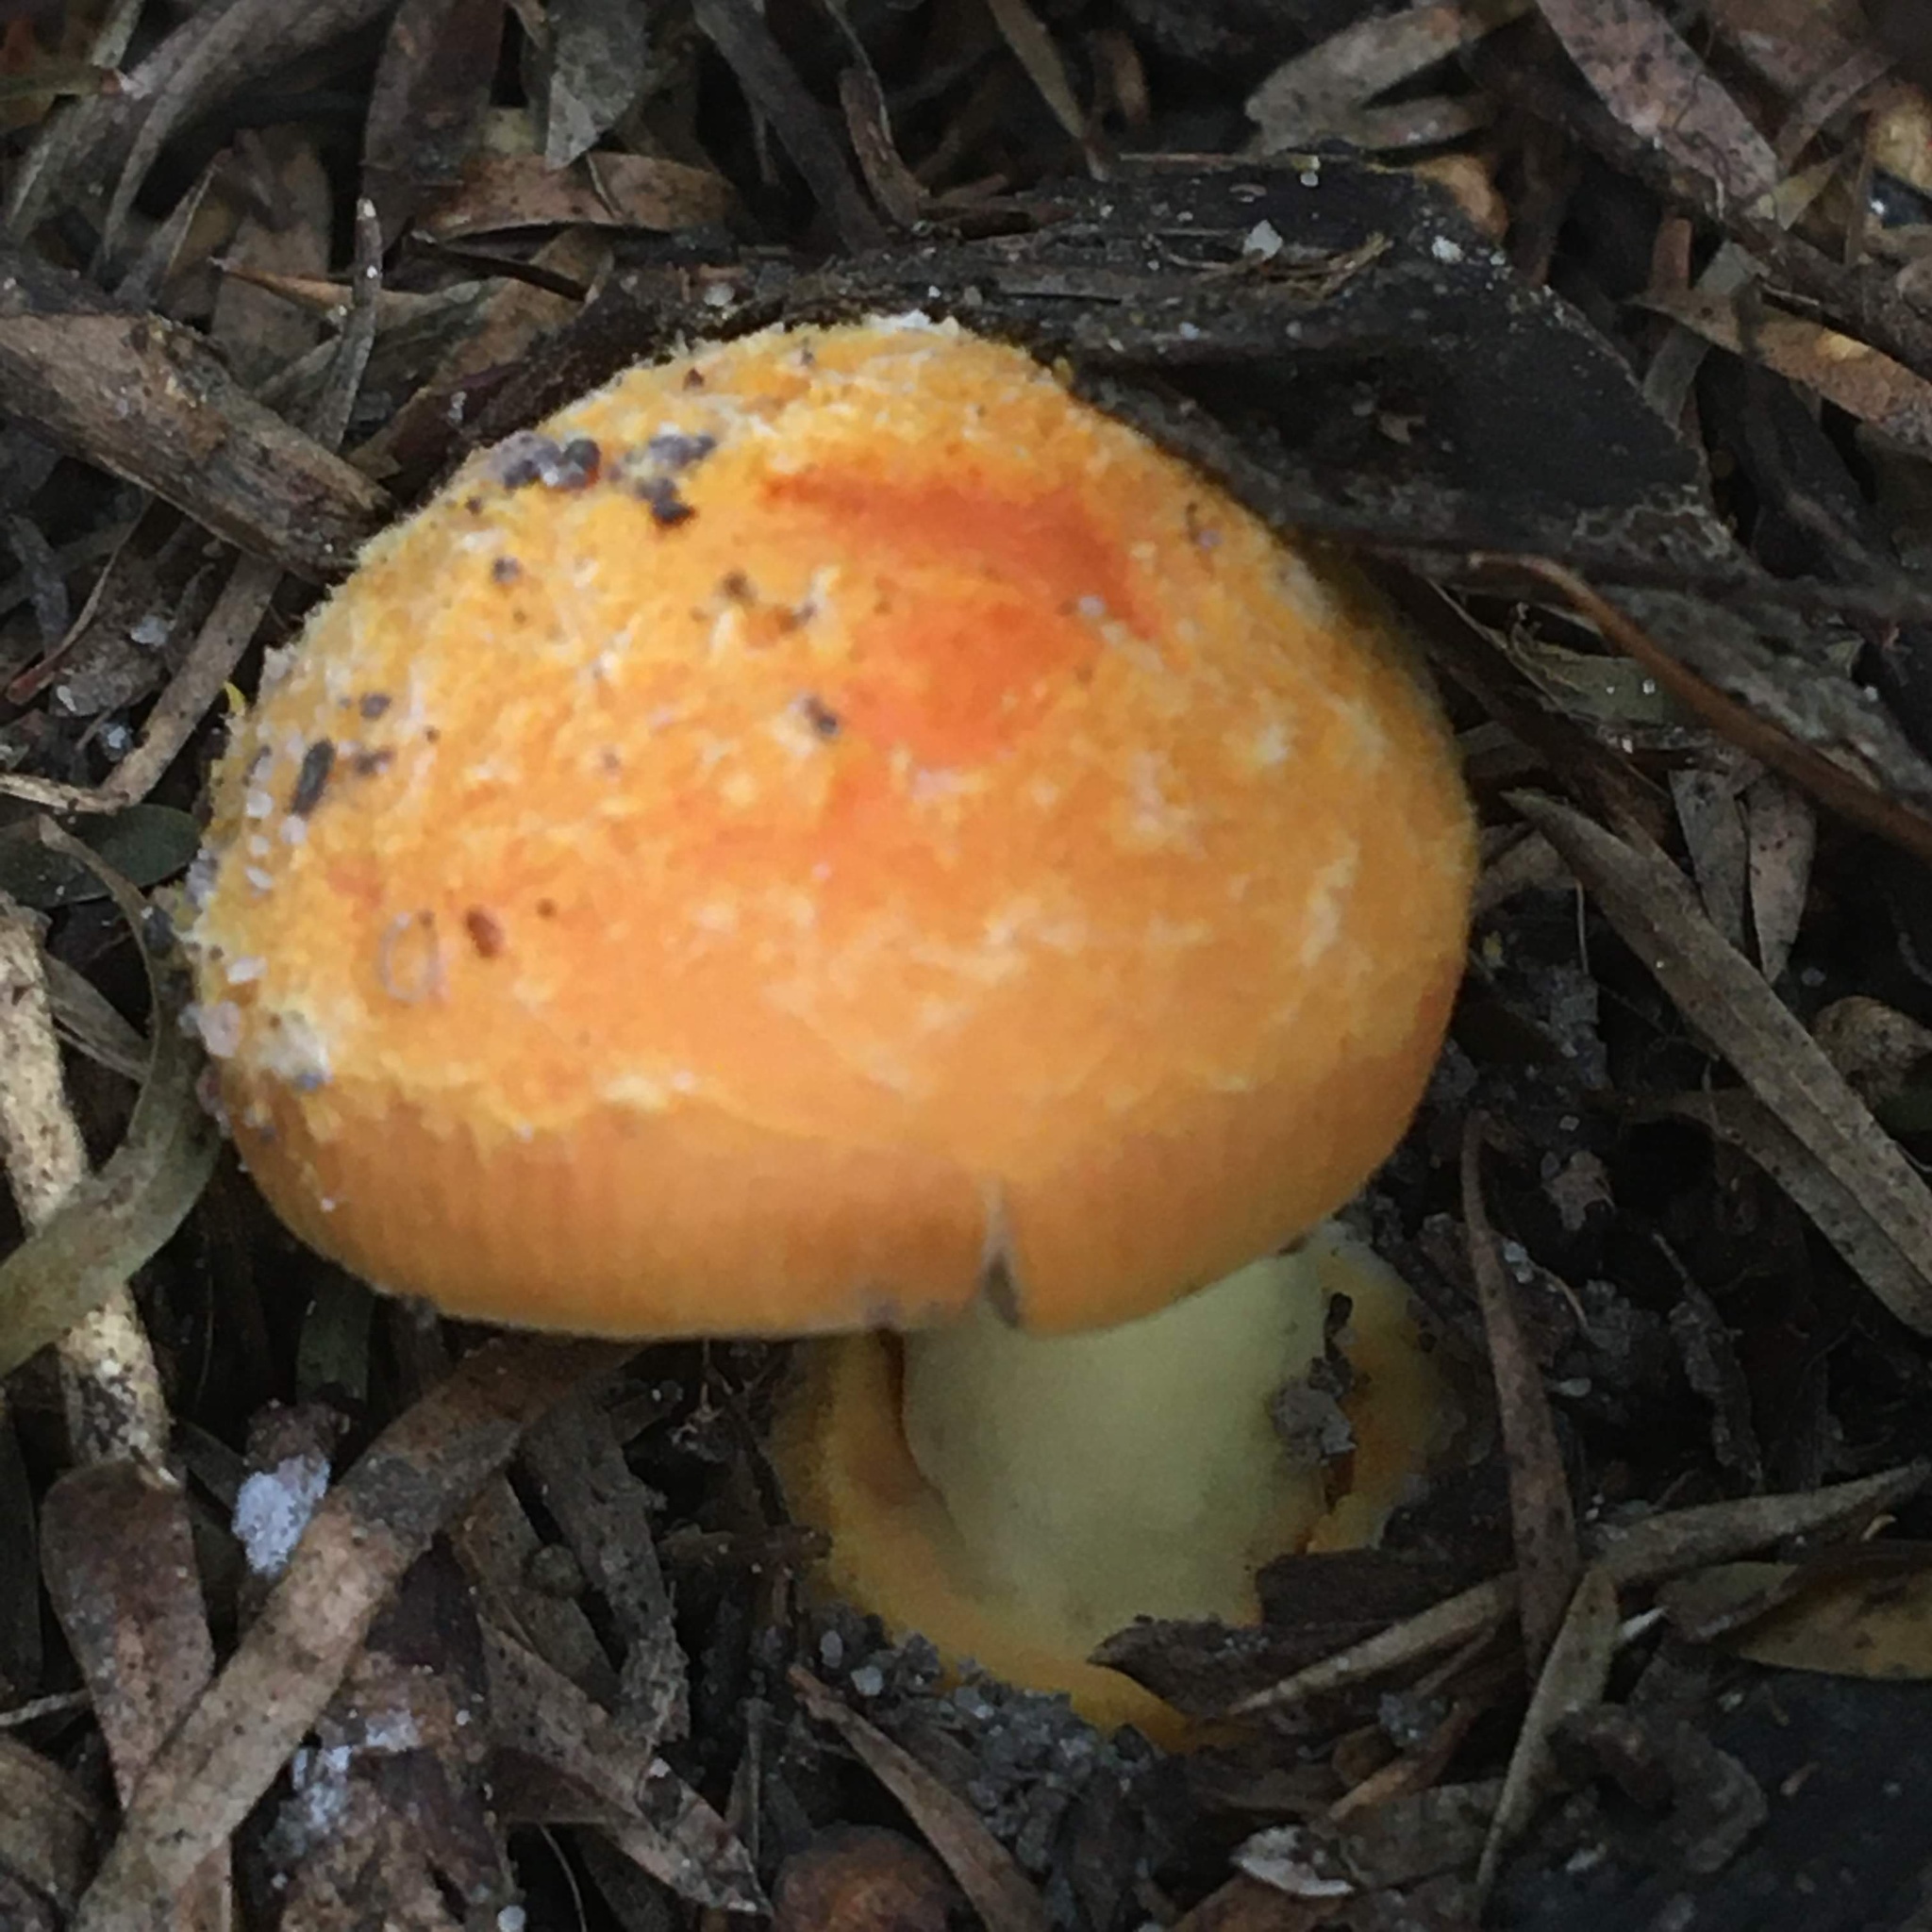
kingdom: Fungi
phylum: Basidiomycota
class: Agaricomycetes
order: Agaricales
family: Amanitaceae
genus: Amanita
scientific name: Amanita xanthocephala
